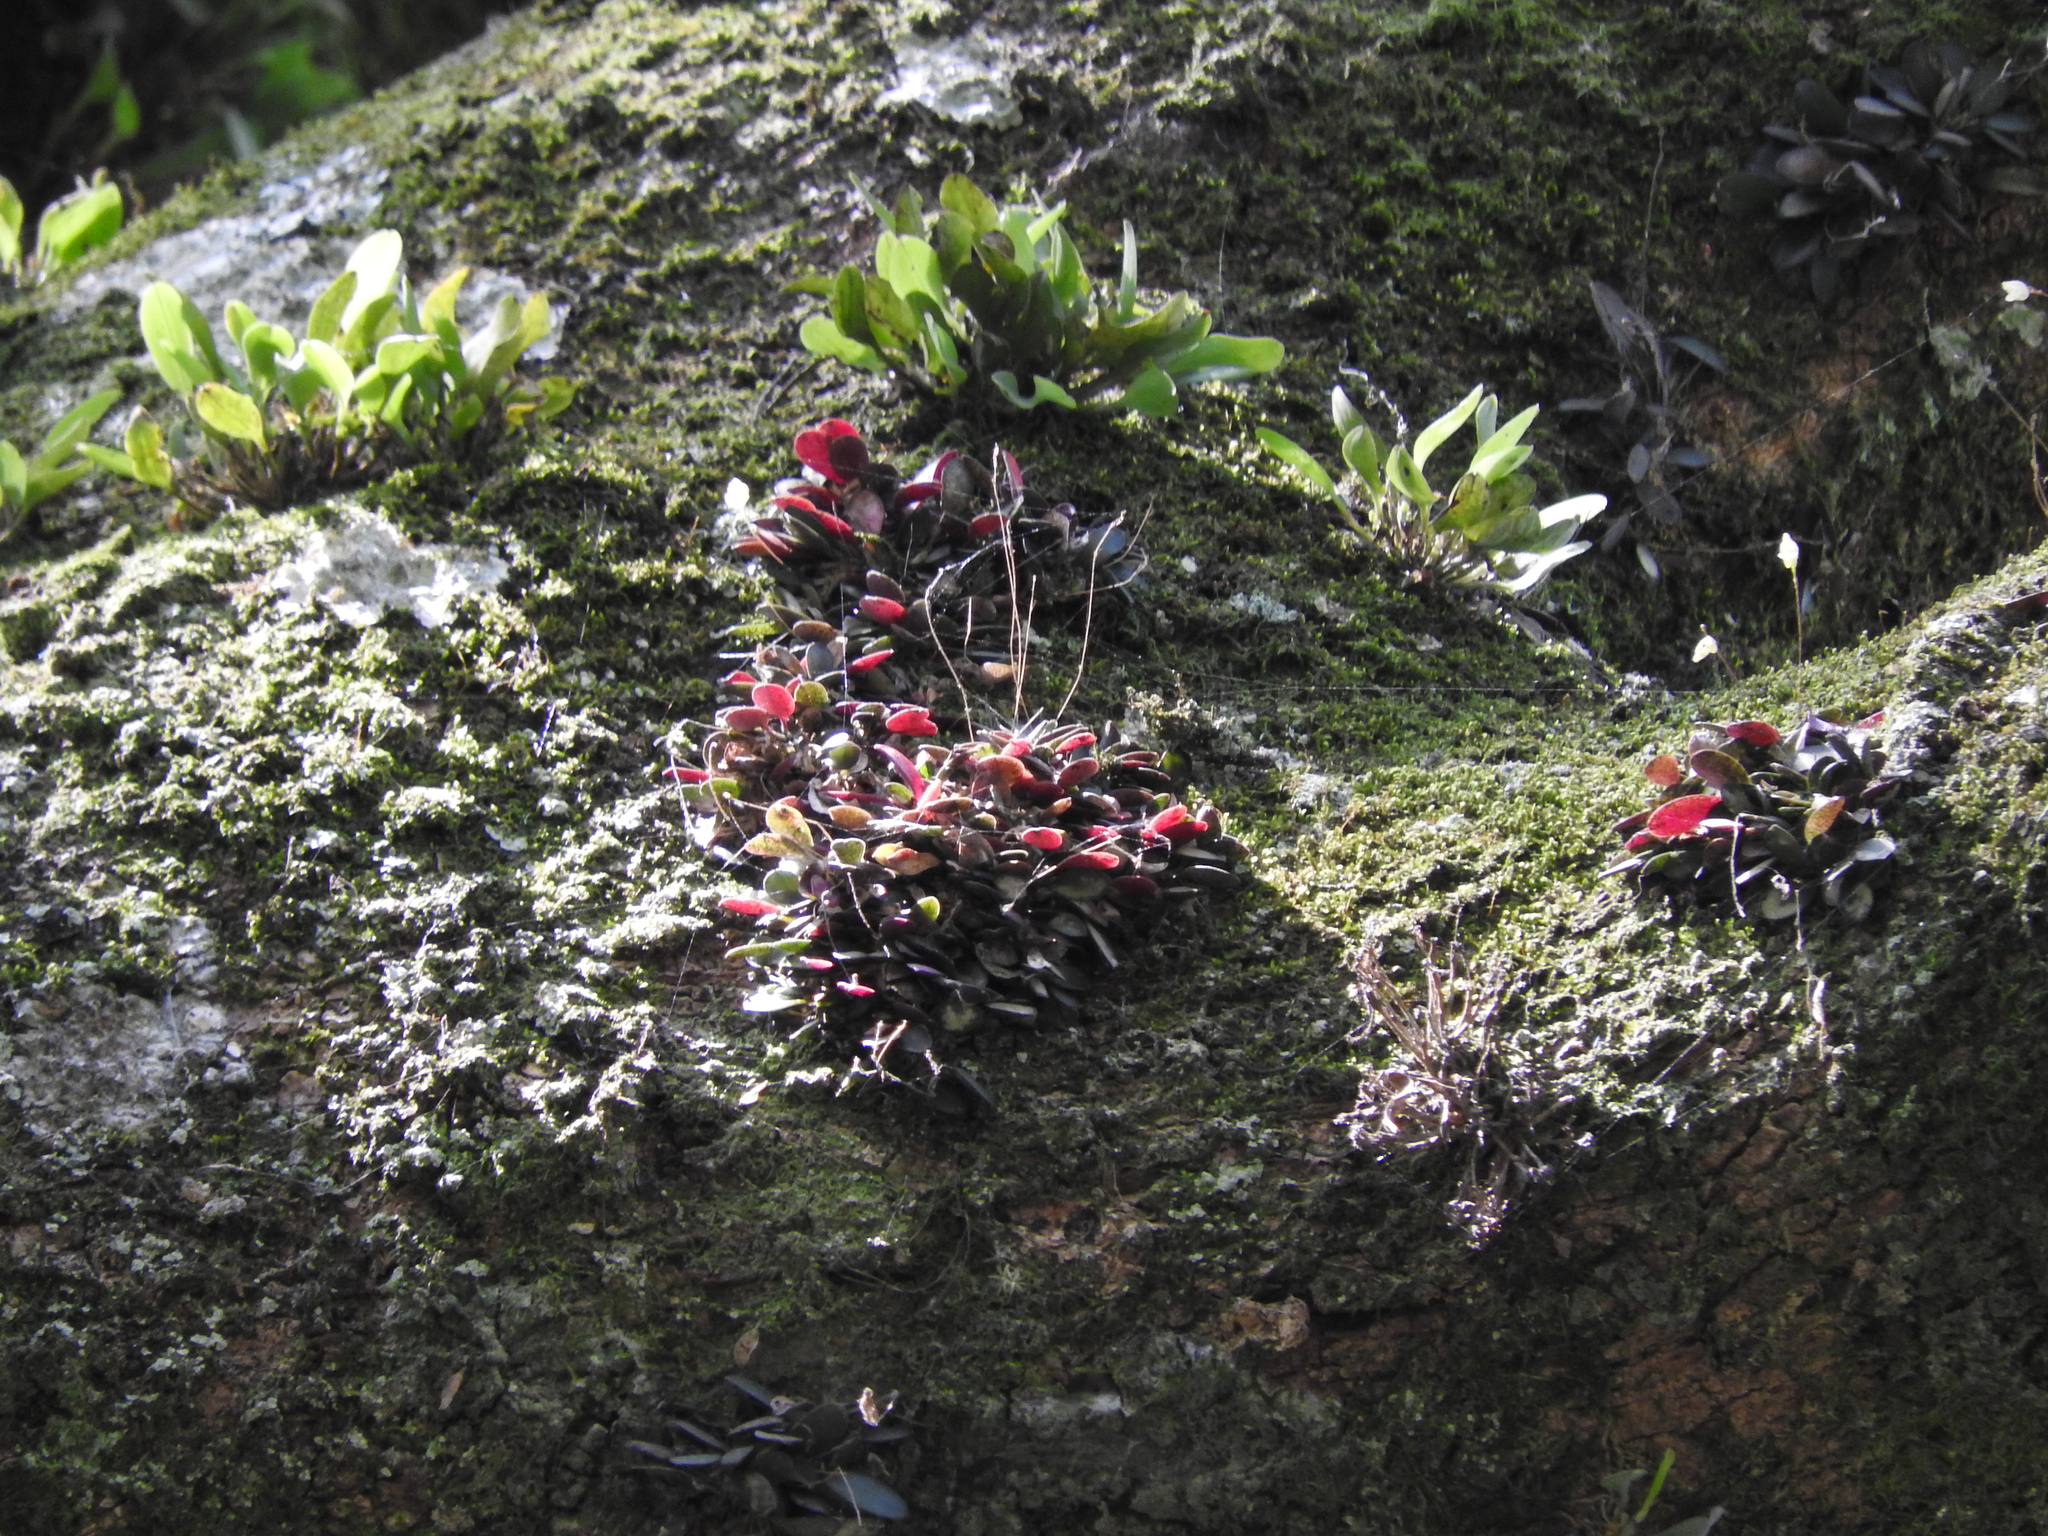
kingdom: Plantae
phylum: Tracheophyta
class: Liliopsida
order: Asparagales
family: Orchidaceae
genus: Specklinia
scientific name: Specklinia digitale
